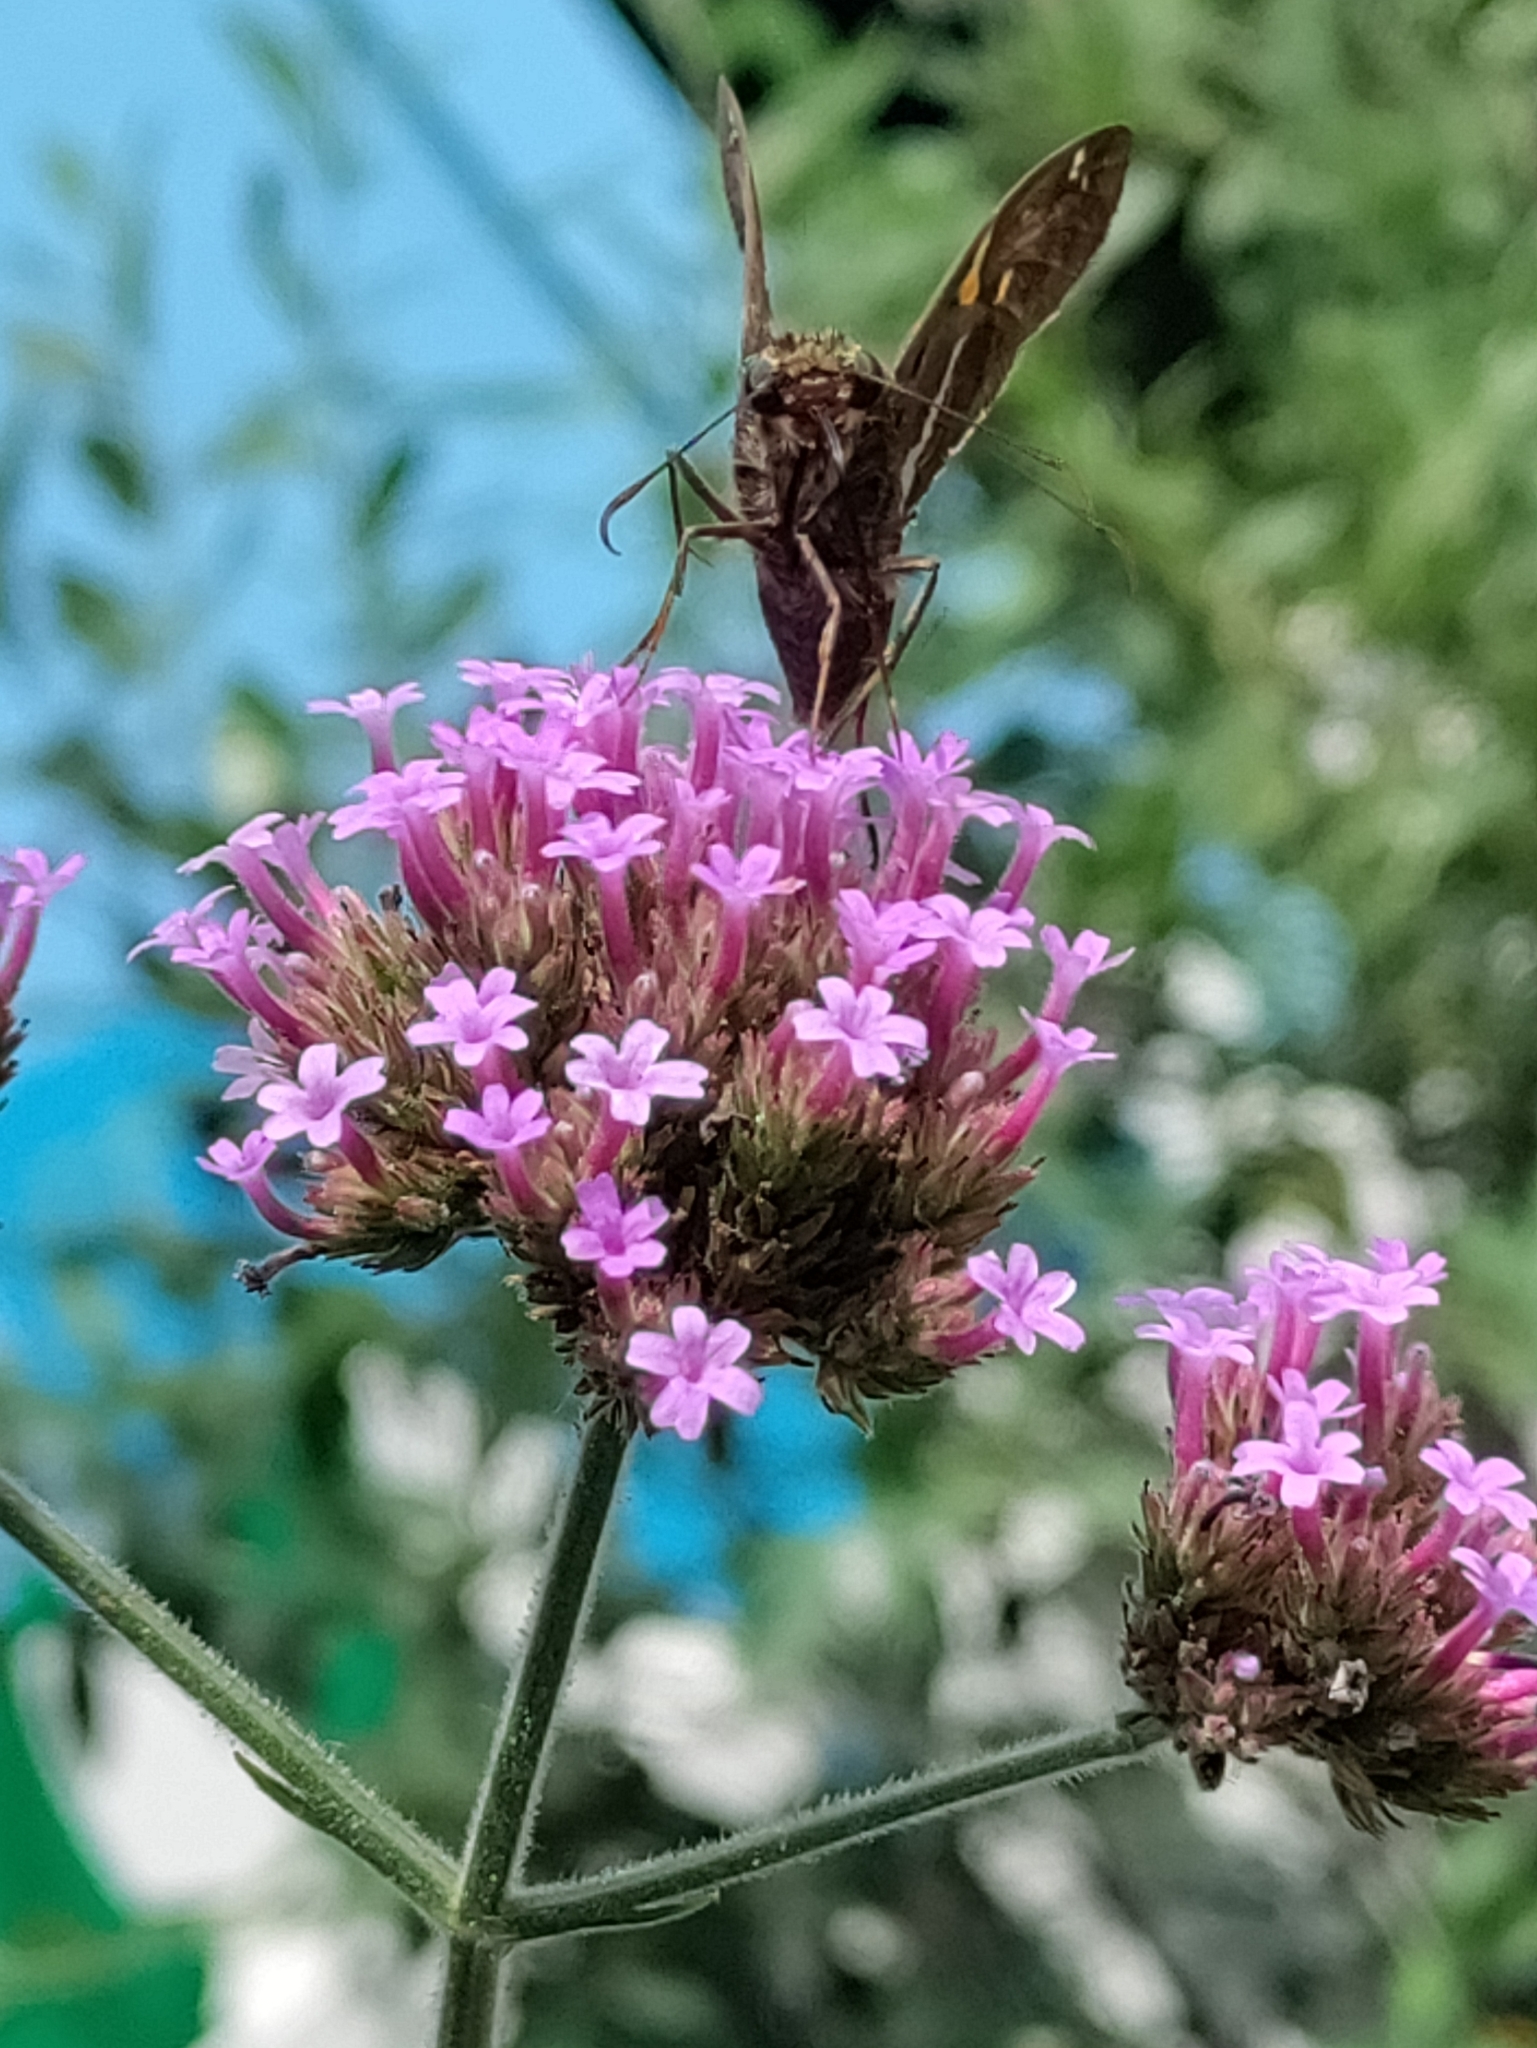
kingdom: Animalia
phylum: Arthropoda
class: Insecta
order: Lepidoptera
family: Hesperiidae
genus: Epargyreus
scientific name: Epargyreus clarus
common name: Silver-spotted skipper
